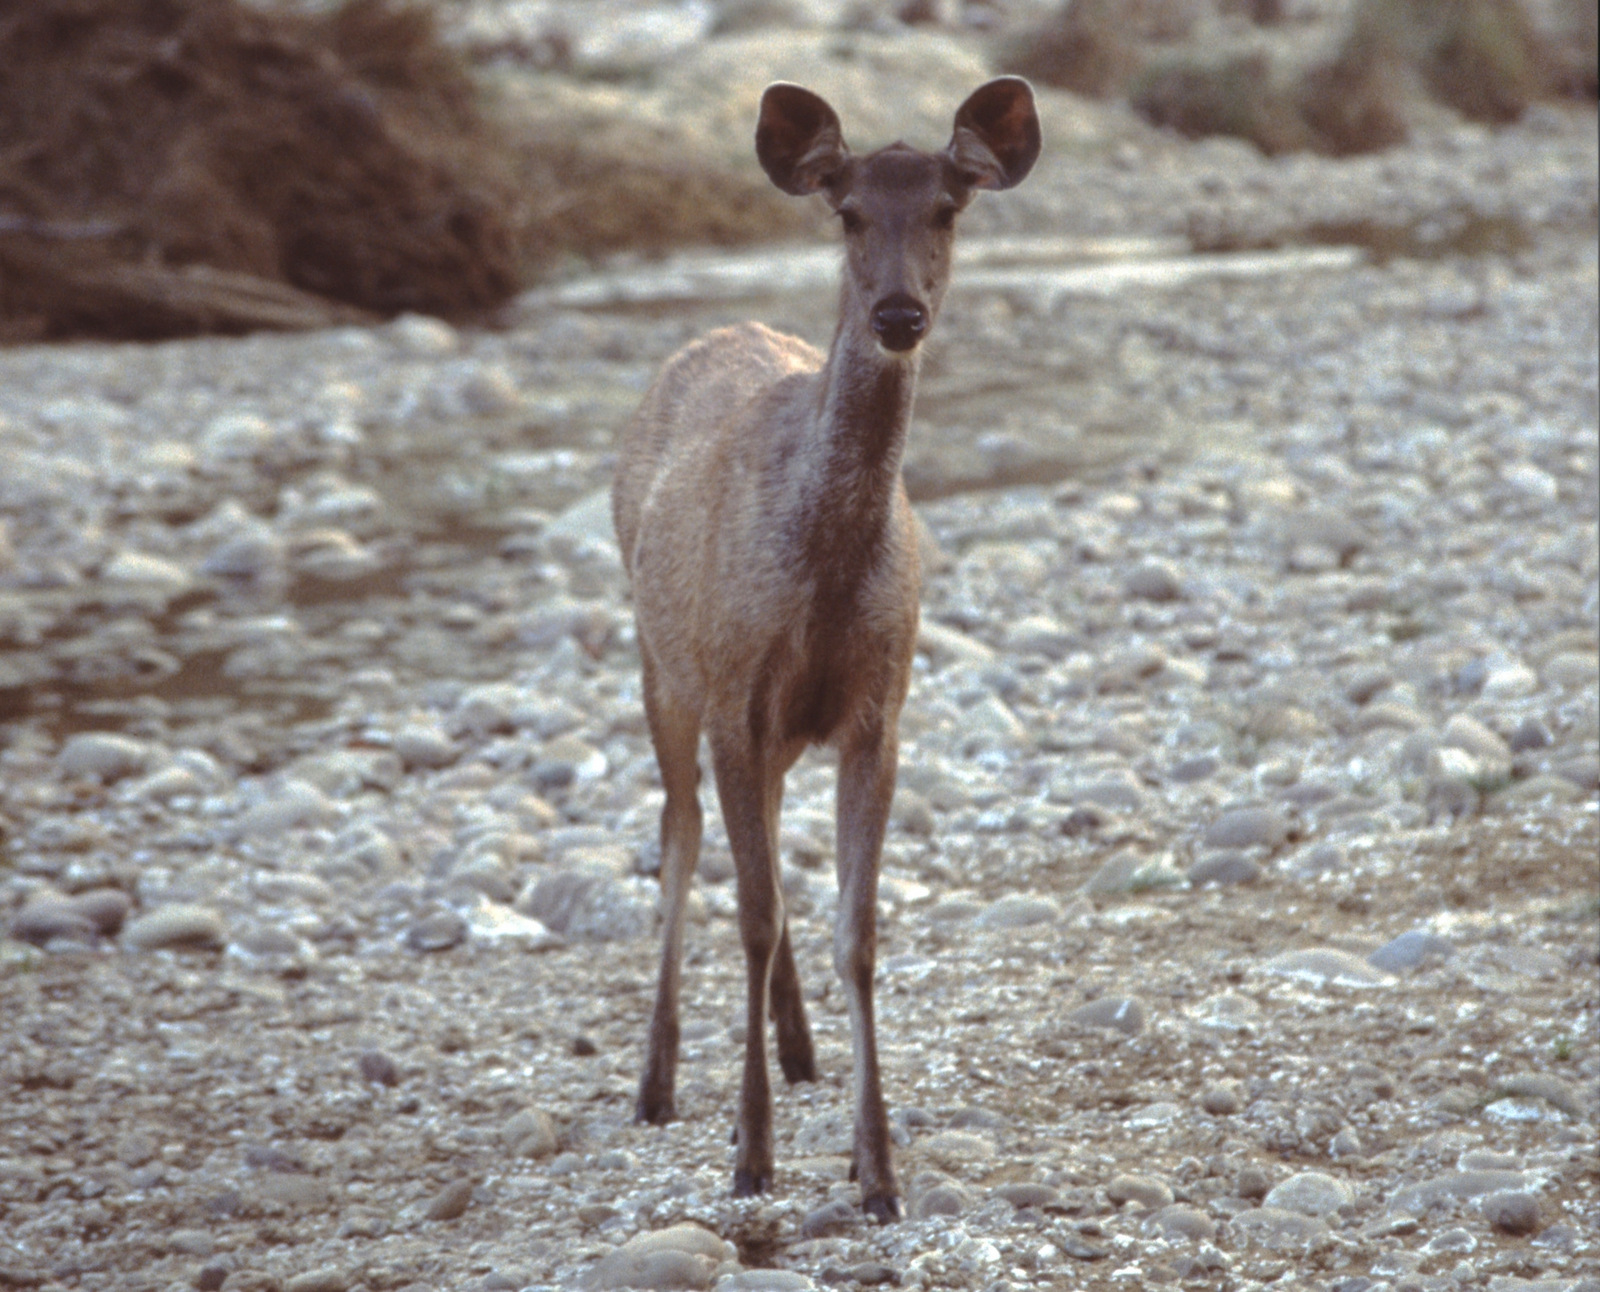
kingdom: Animalia
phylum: Chordata
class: Mammalia
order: Artiodactyla
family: Cervidae
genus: Rusa
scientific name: Rusa unicolor
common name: Sambar
